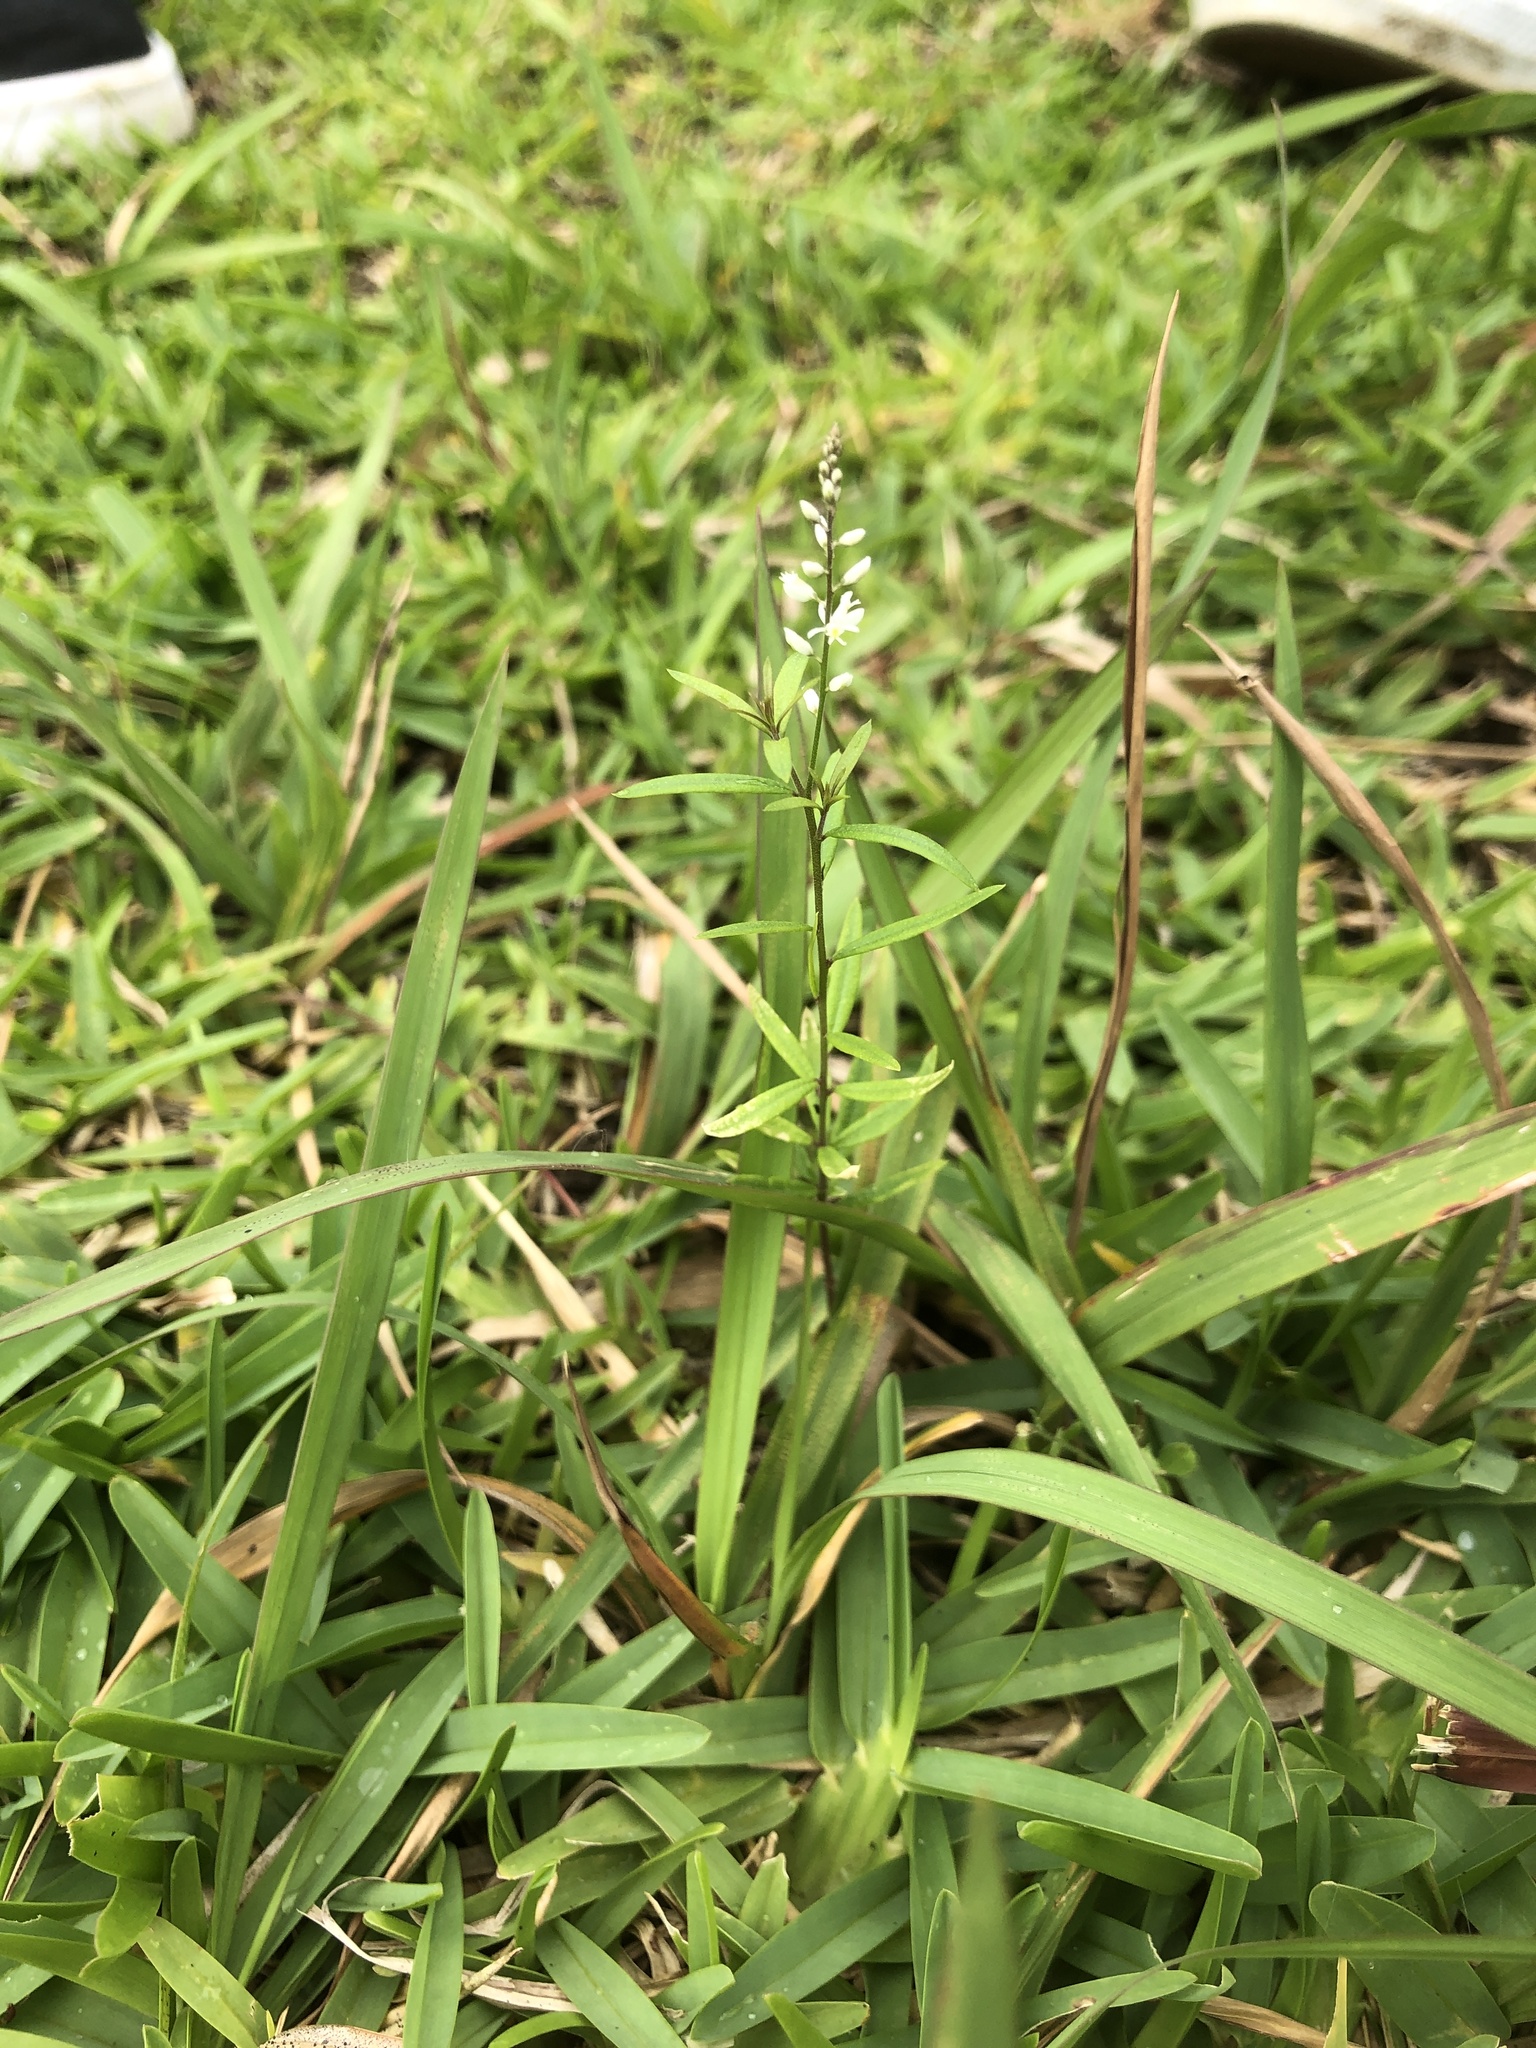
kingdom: Plantae
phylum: Tracheophyta
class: Magnoliopsida
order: Fabales
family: Polygalaceae
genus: Polygala
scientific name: Polygala paniculata
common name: Orosne
